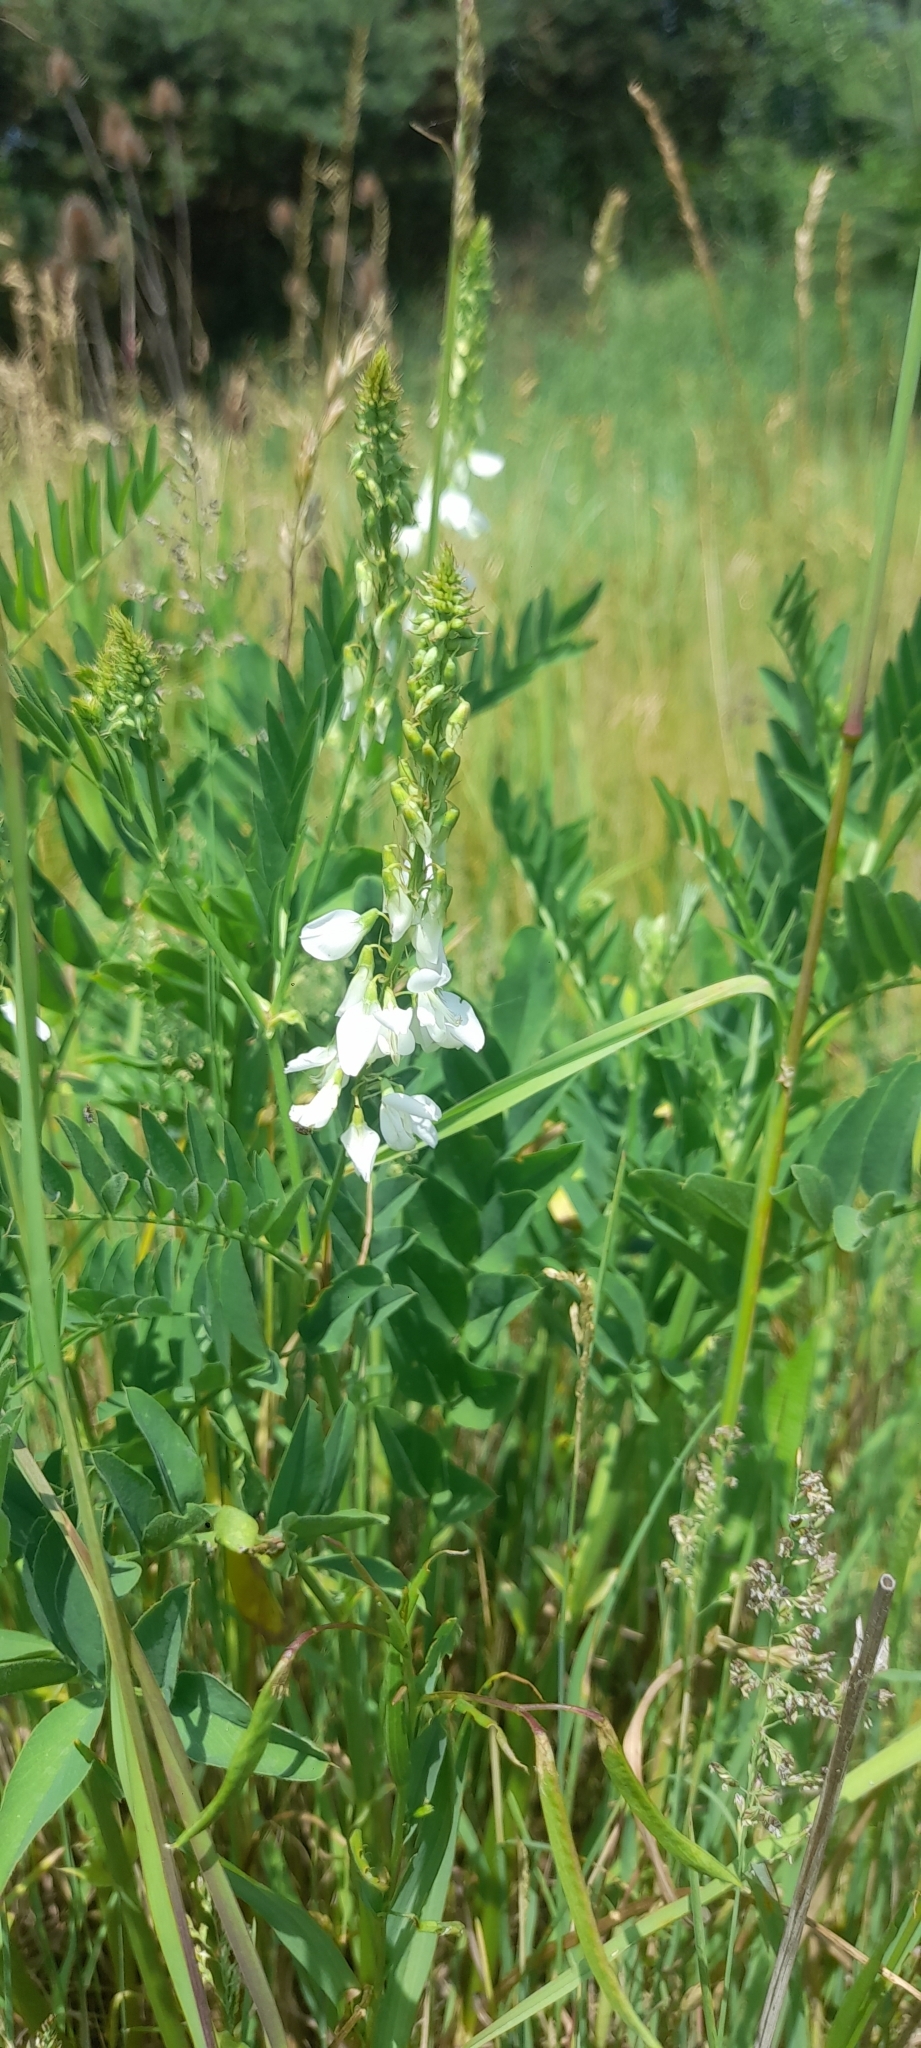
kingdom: Plantae
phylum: Tracheophyta
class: Magnoliopsida
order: Fabales
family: Fabaceae
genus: Galega
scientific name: Galega officinalis
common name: Goat's-rue
